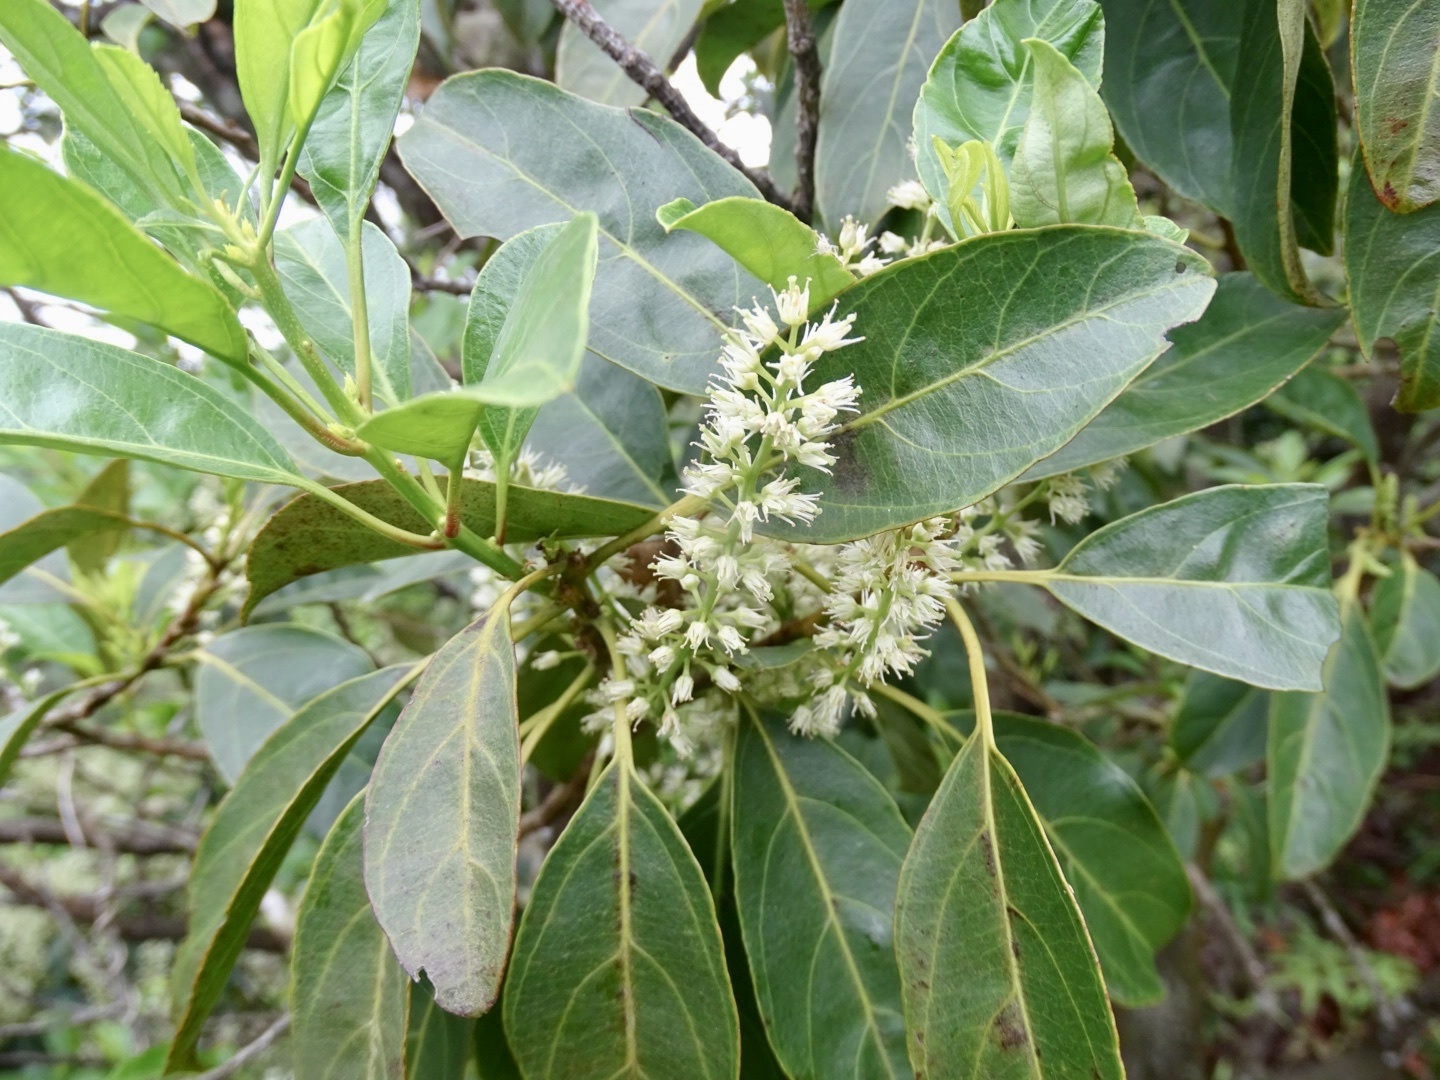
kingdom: Plantae
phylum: Tracheophyta
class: Magnoliopsida
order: Saxifragales
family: Iteaceae
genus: Itea
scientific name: Itea chinensis
